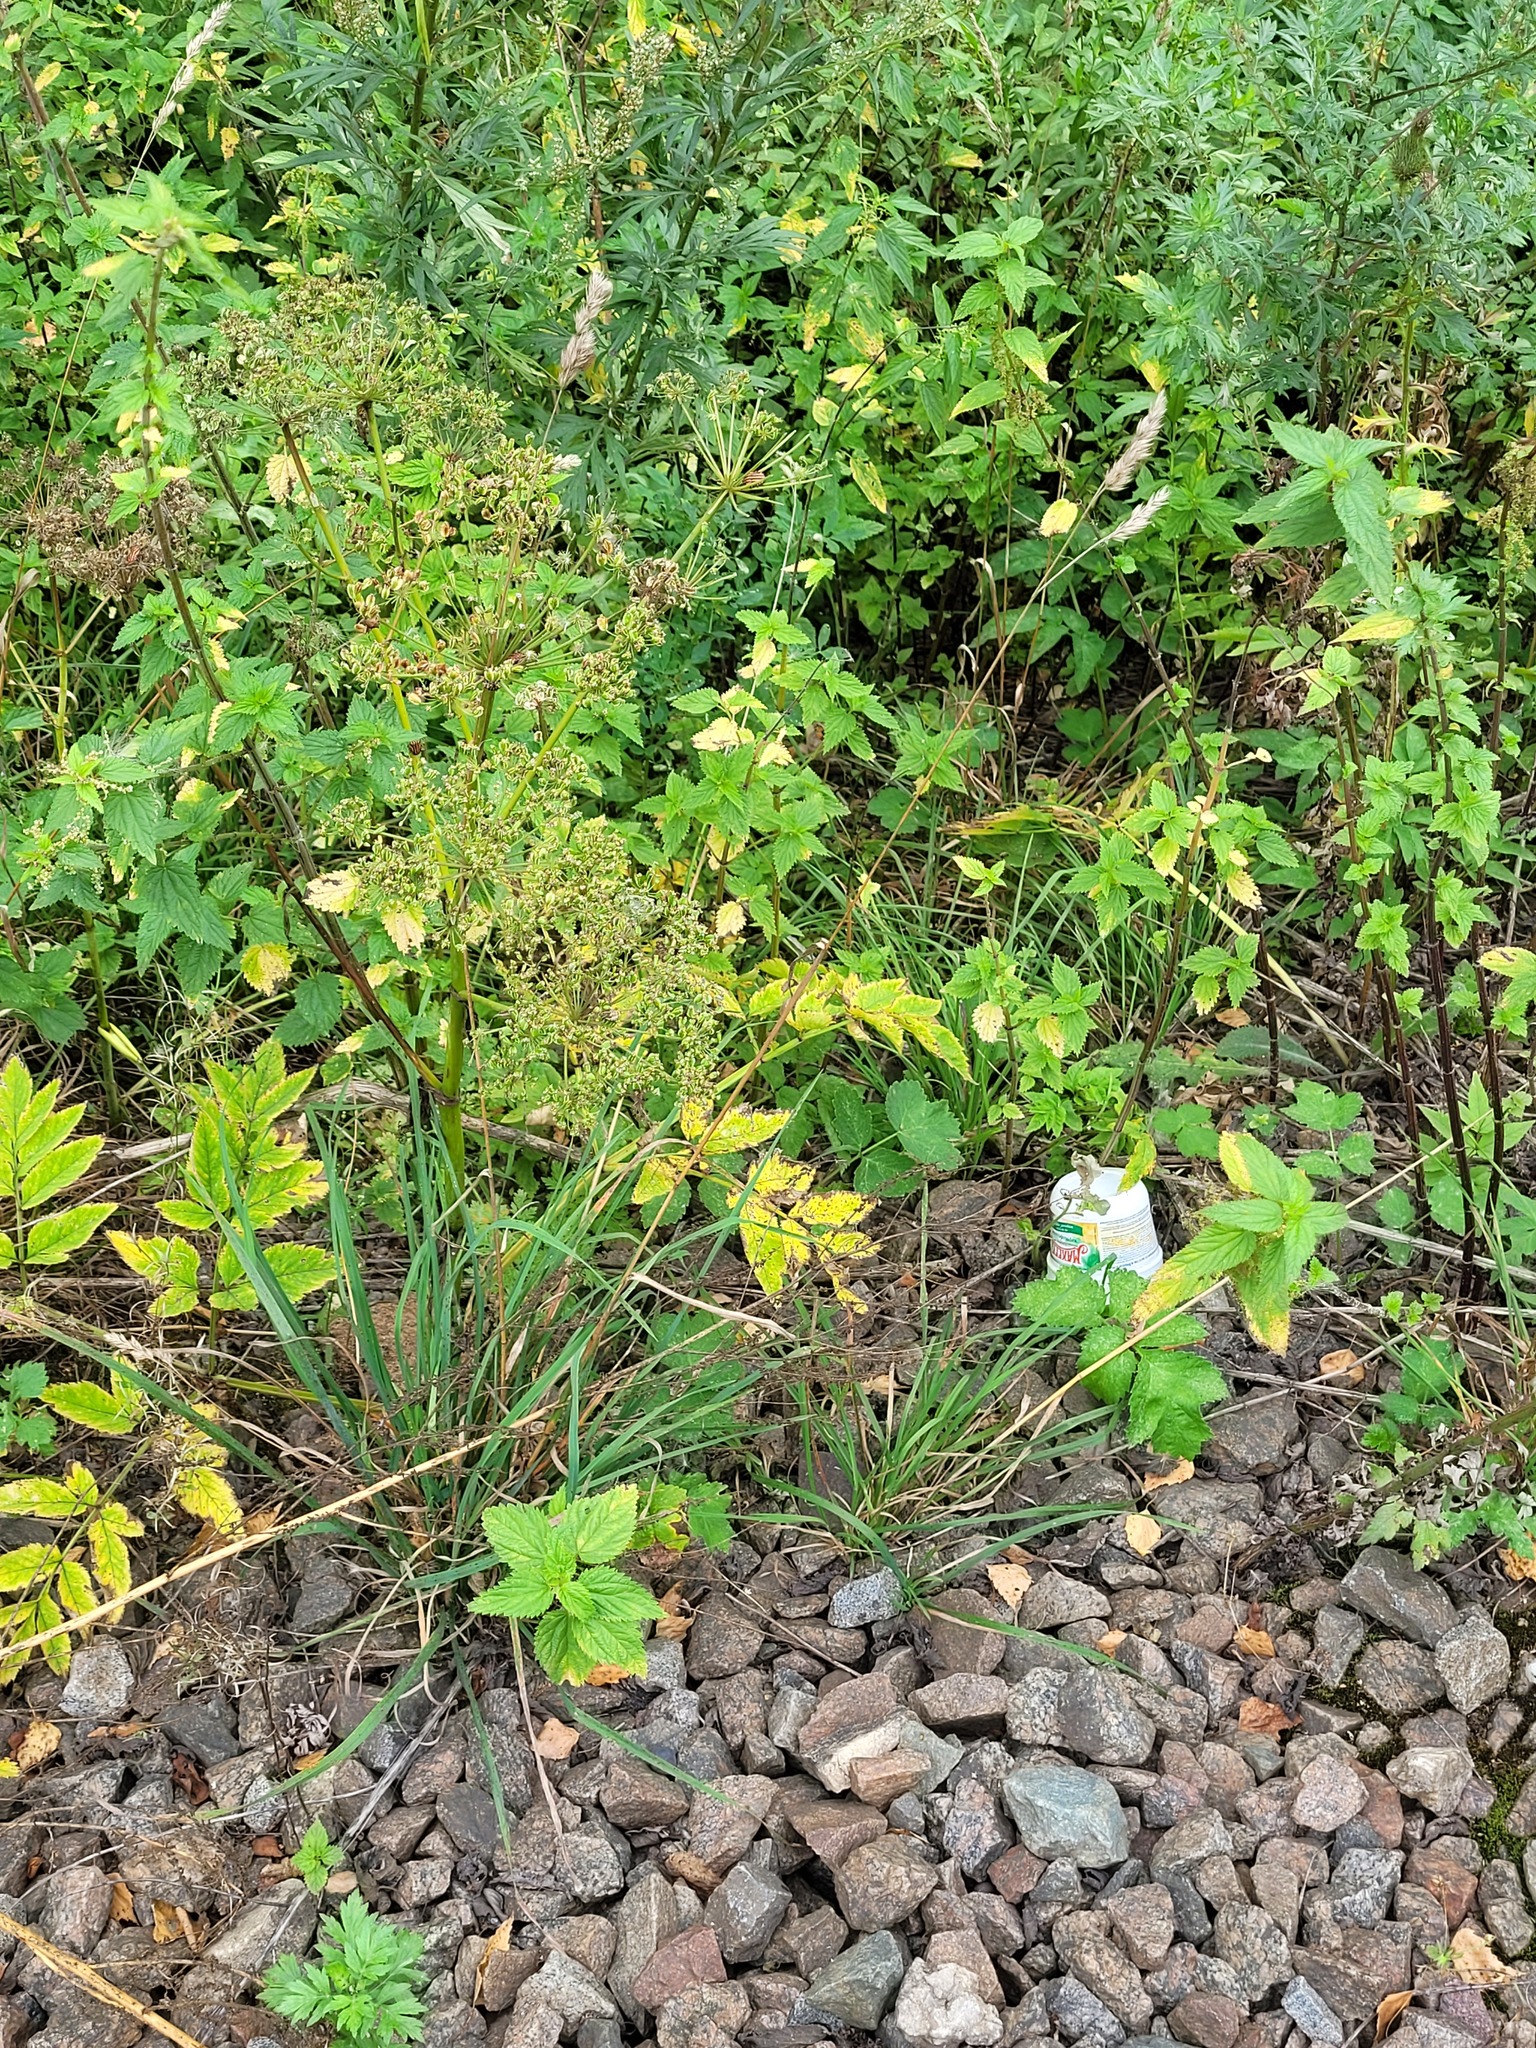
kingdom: Plantae
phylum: Tracheophyta
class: Liliopsida
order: Poales
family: Poaceae
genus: Dactylis
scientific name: Dactylis glomerata
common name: Orchardgrass
